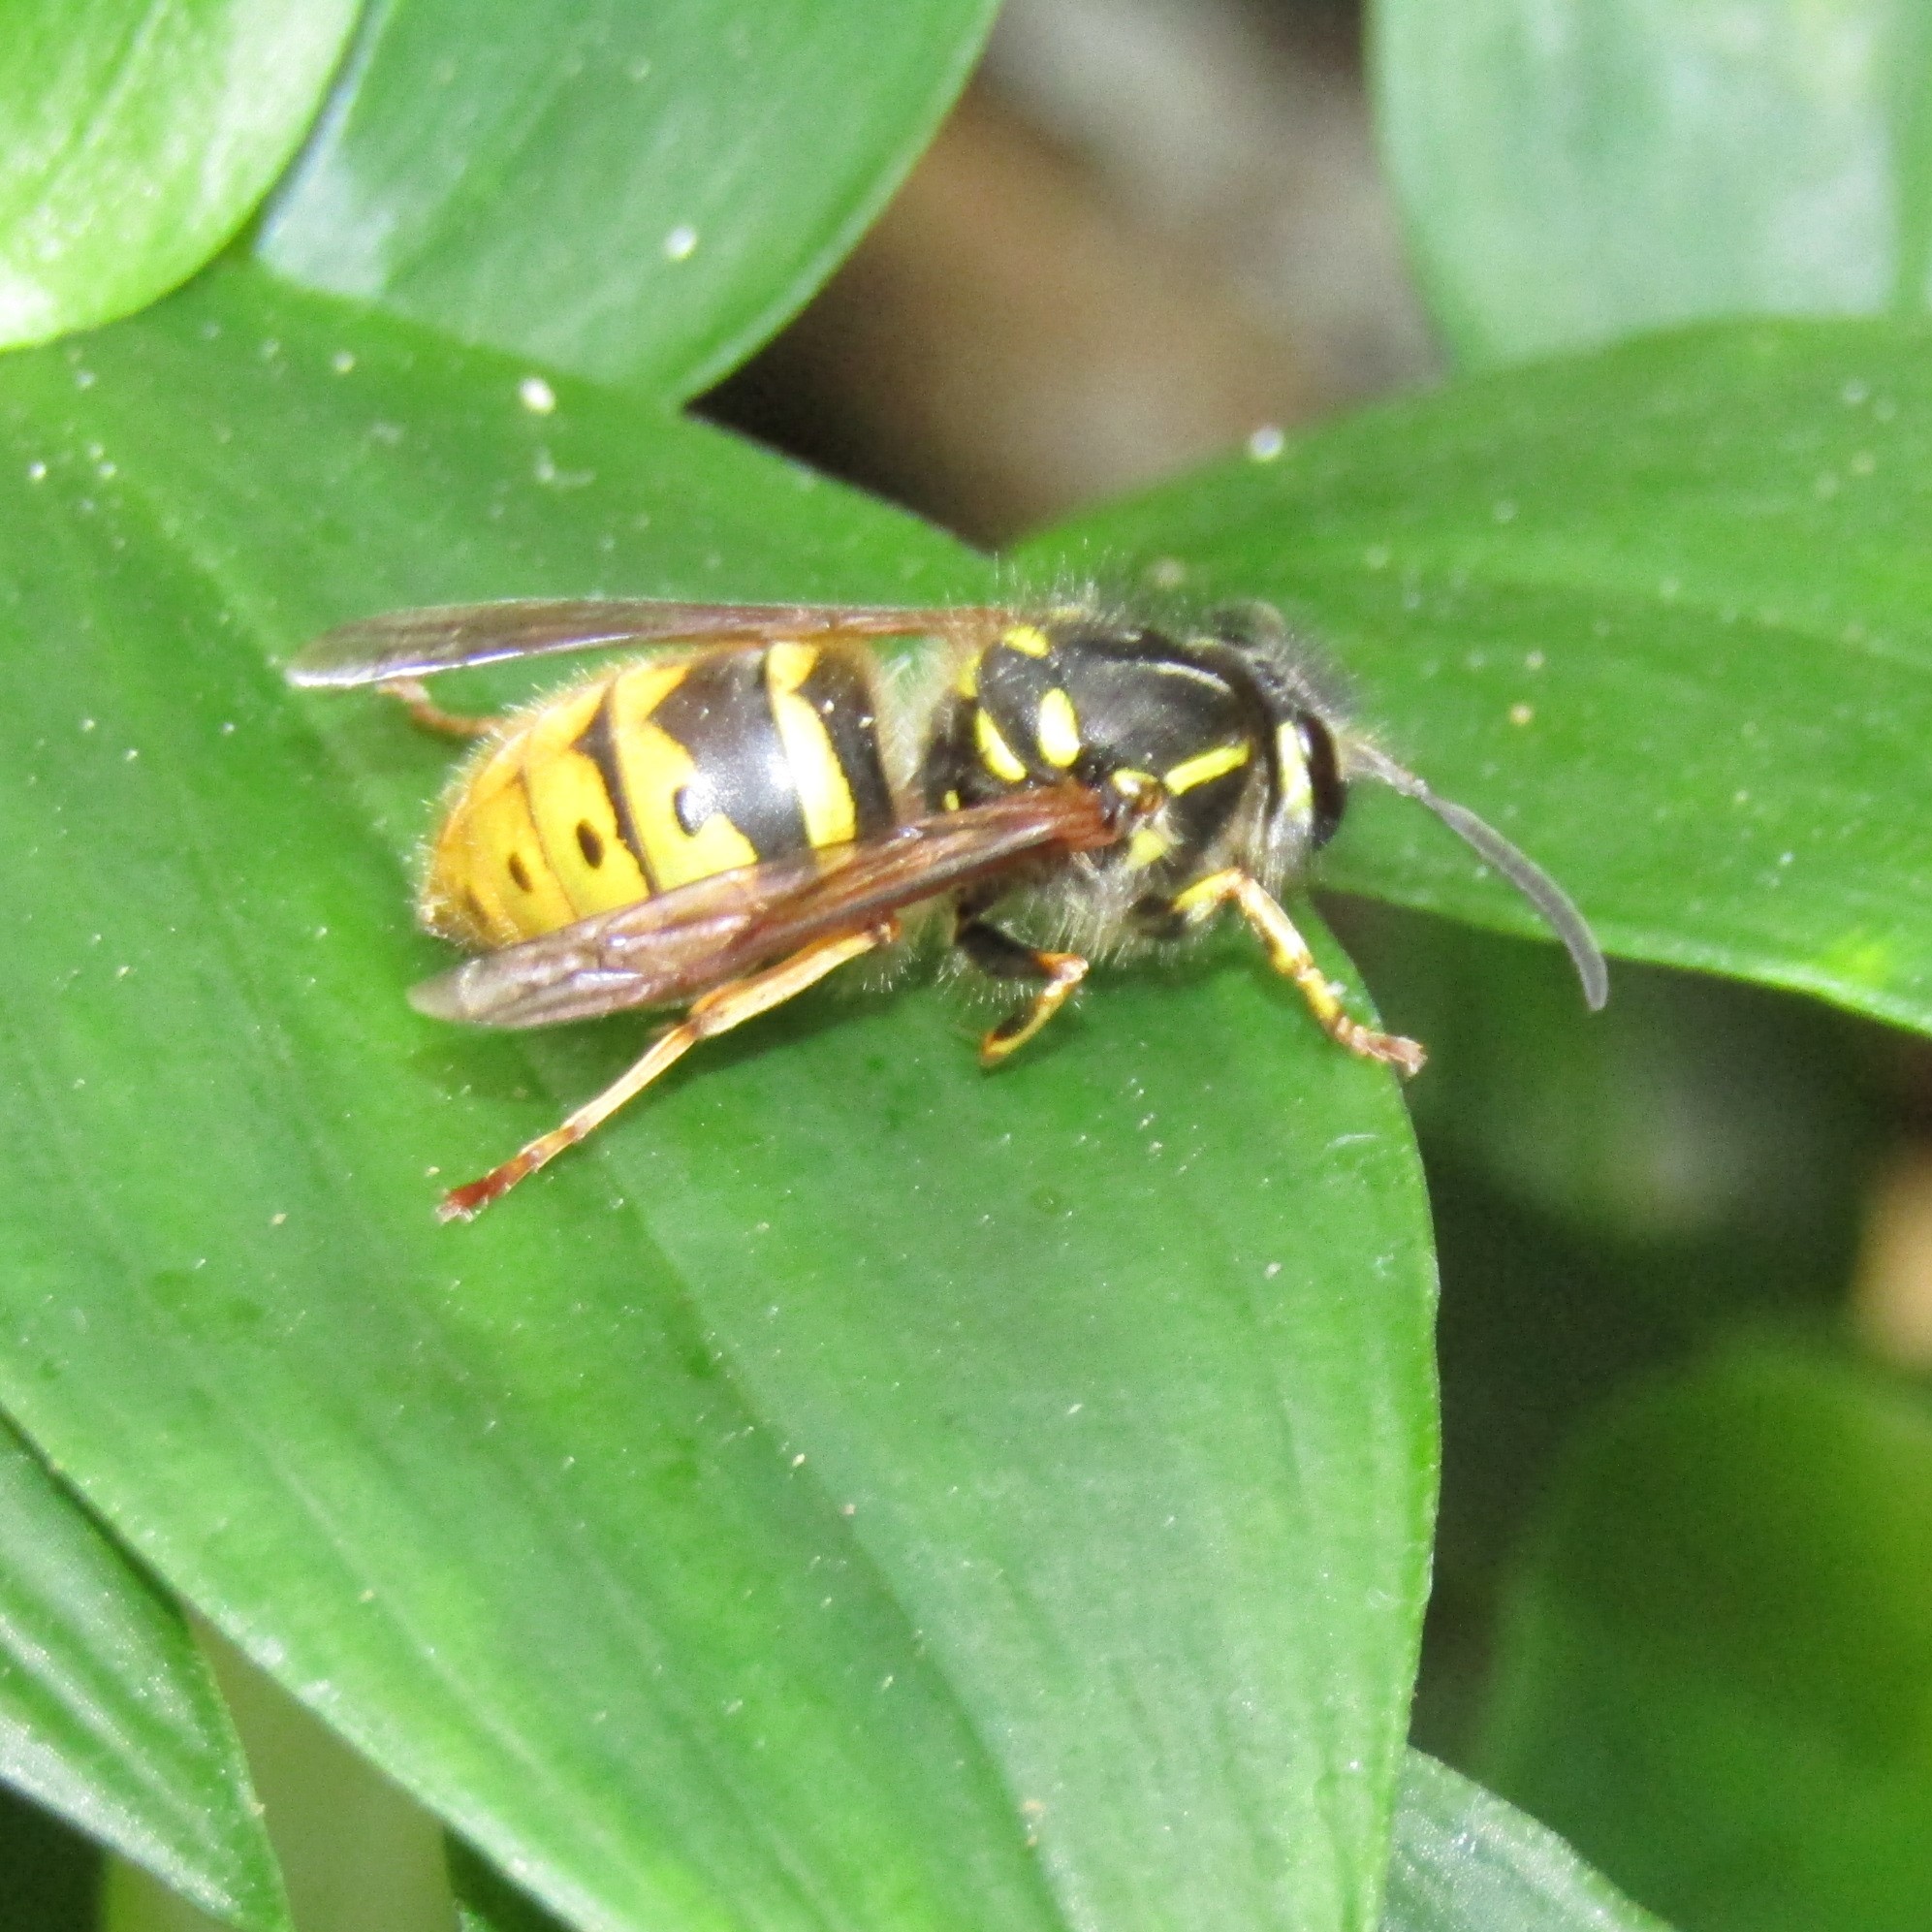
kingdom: Animalia
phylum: Arthropoda
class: Insecta
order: Hymenoptera
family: Vespidae
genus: Vespula
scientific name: Vespula vulgaris
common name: Common wasp
